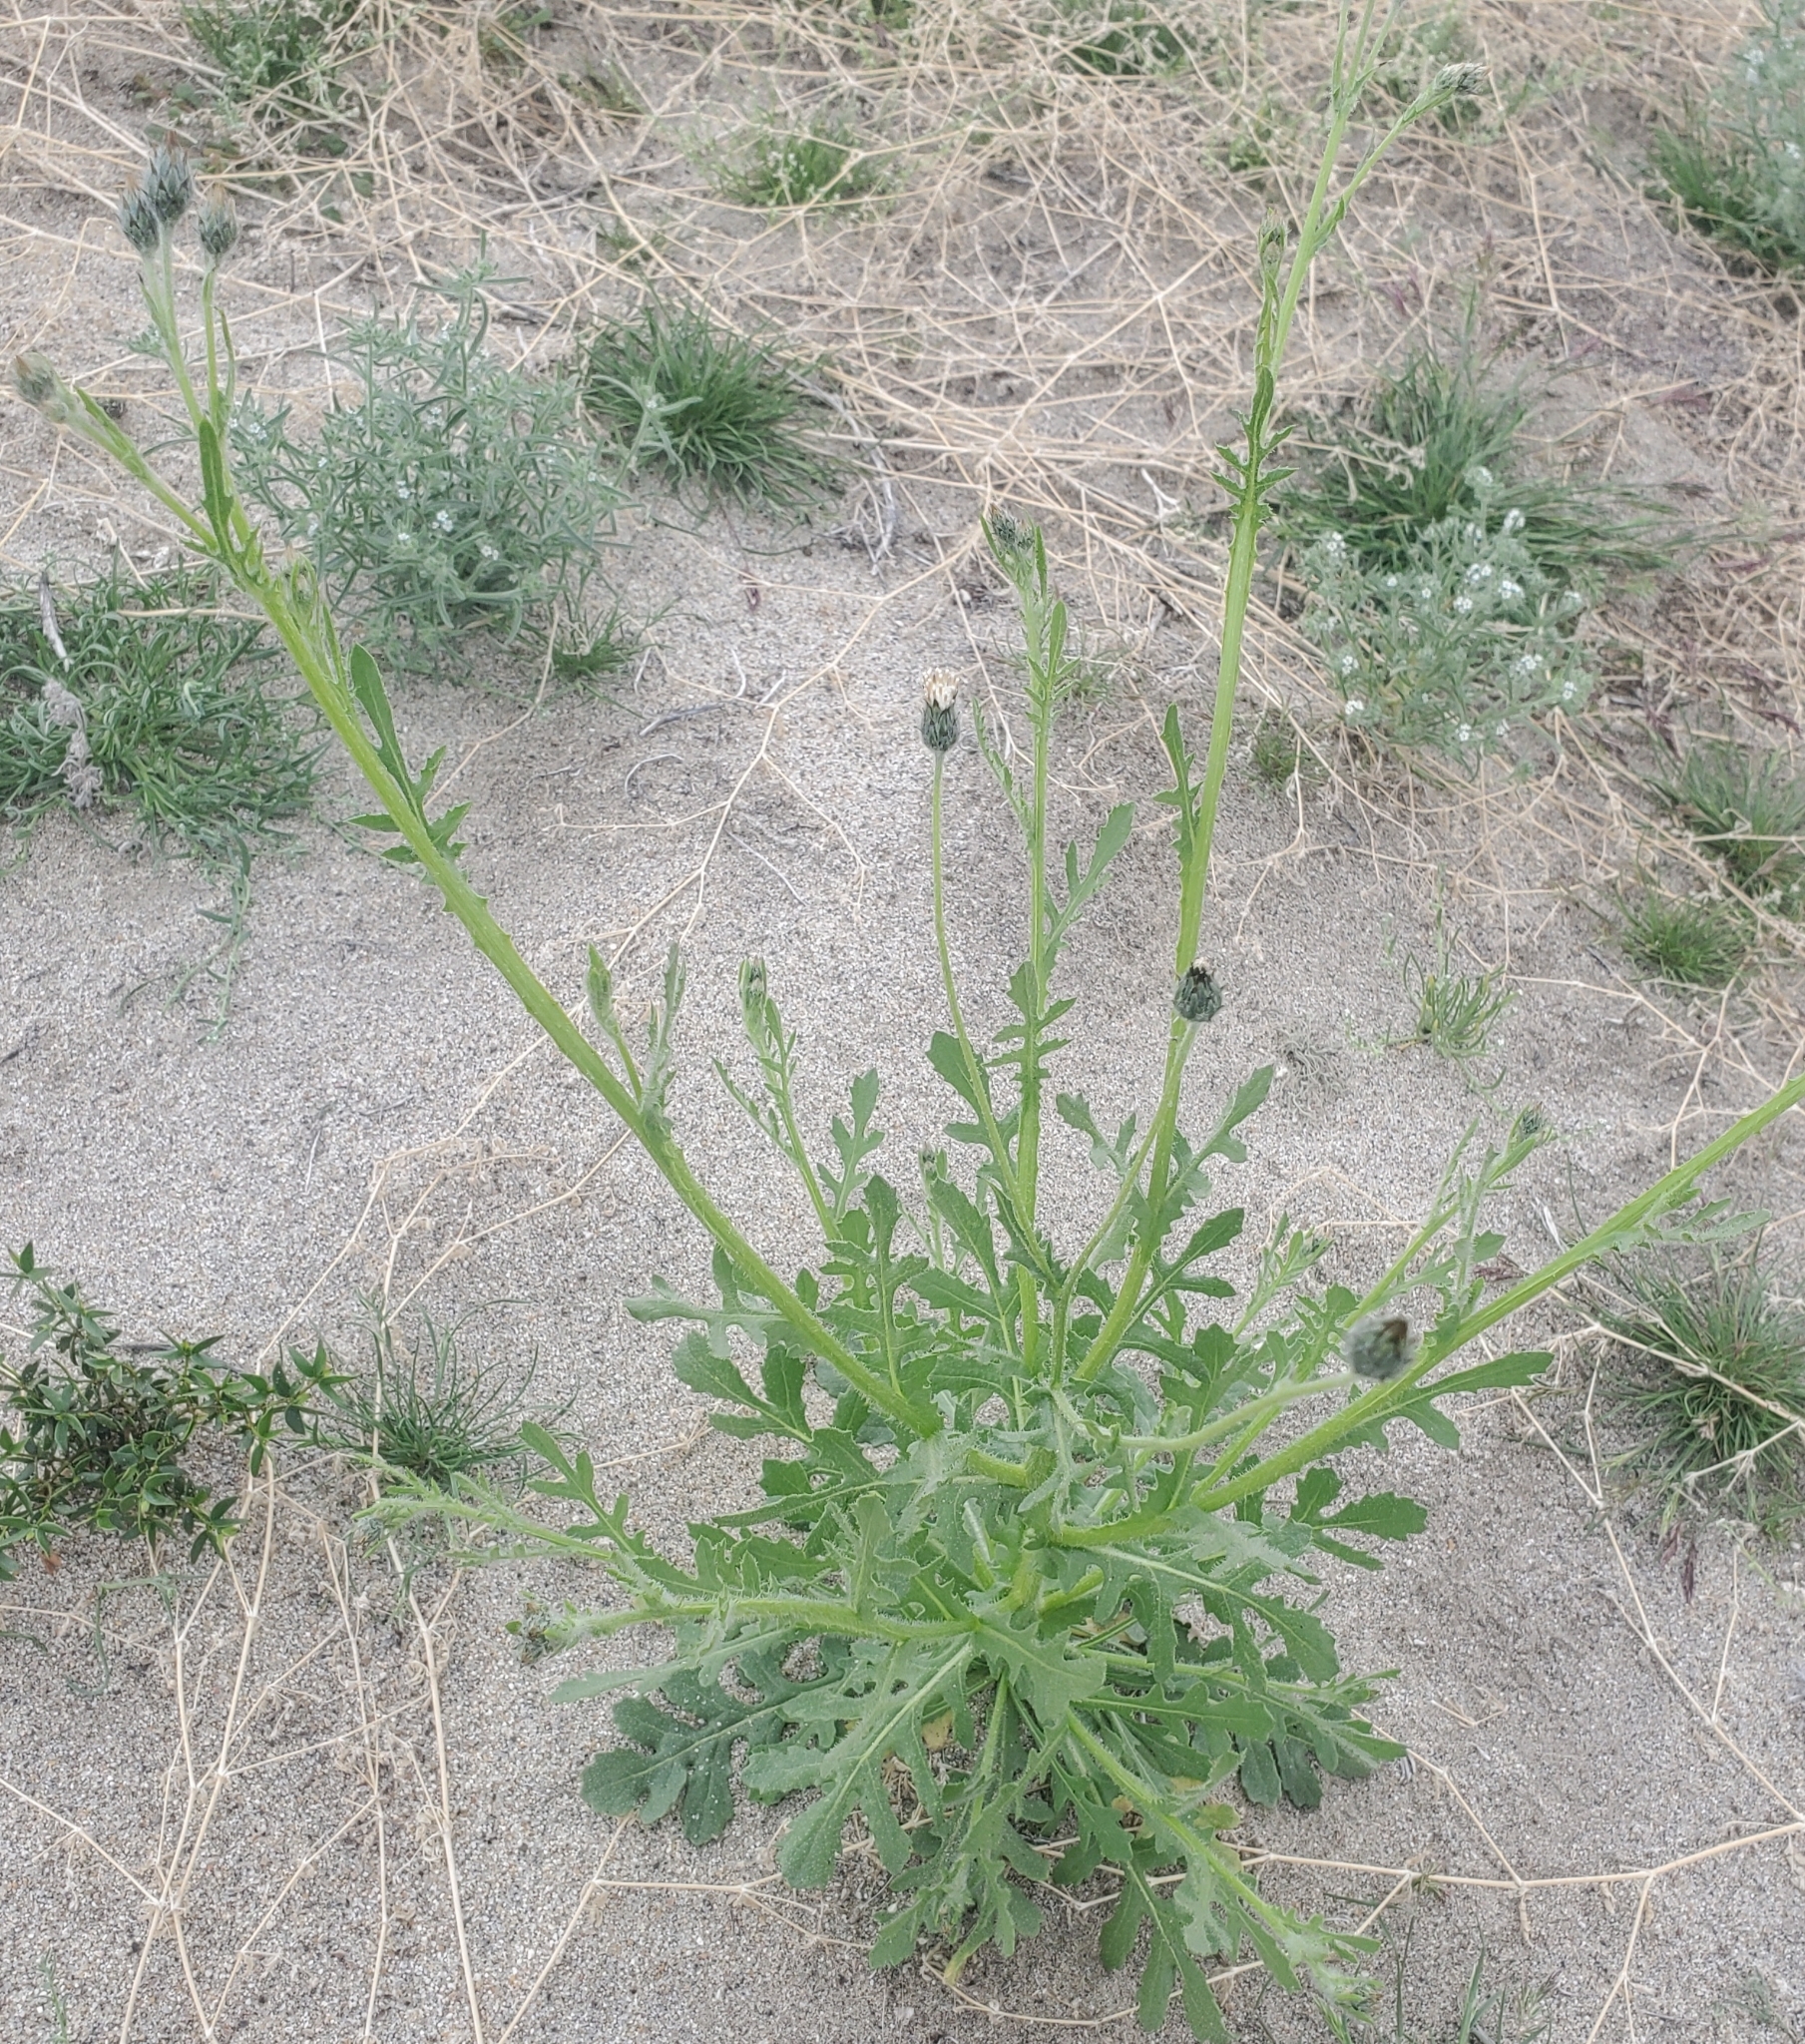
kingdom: Plantae
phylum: Tracheophyta
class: Magnoliopsida
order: Asterales
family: Asteraceae
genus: Volutaria
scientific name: Volutaria tubuliflora
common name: Desert knapweed
